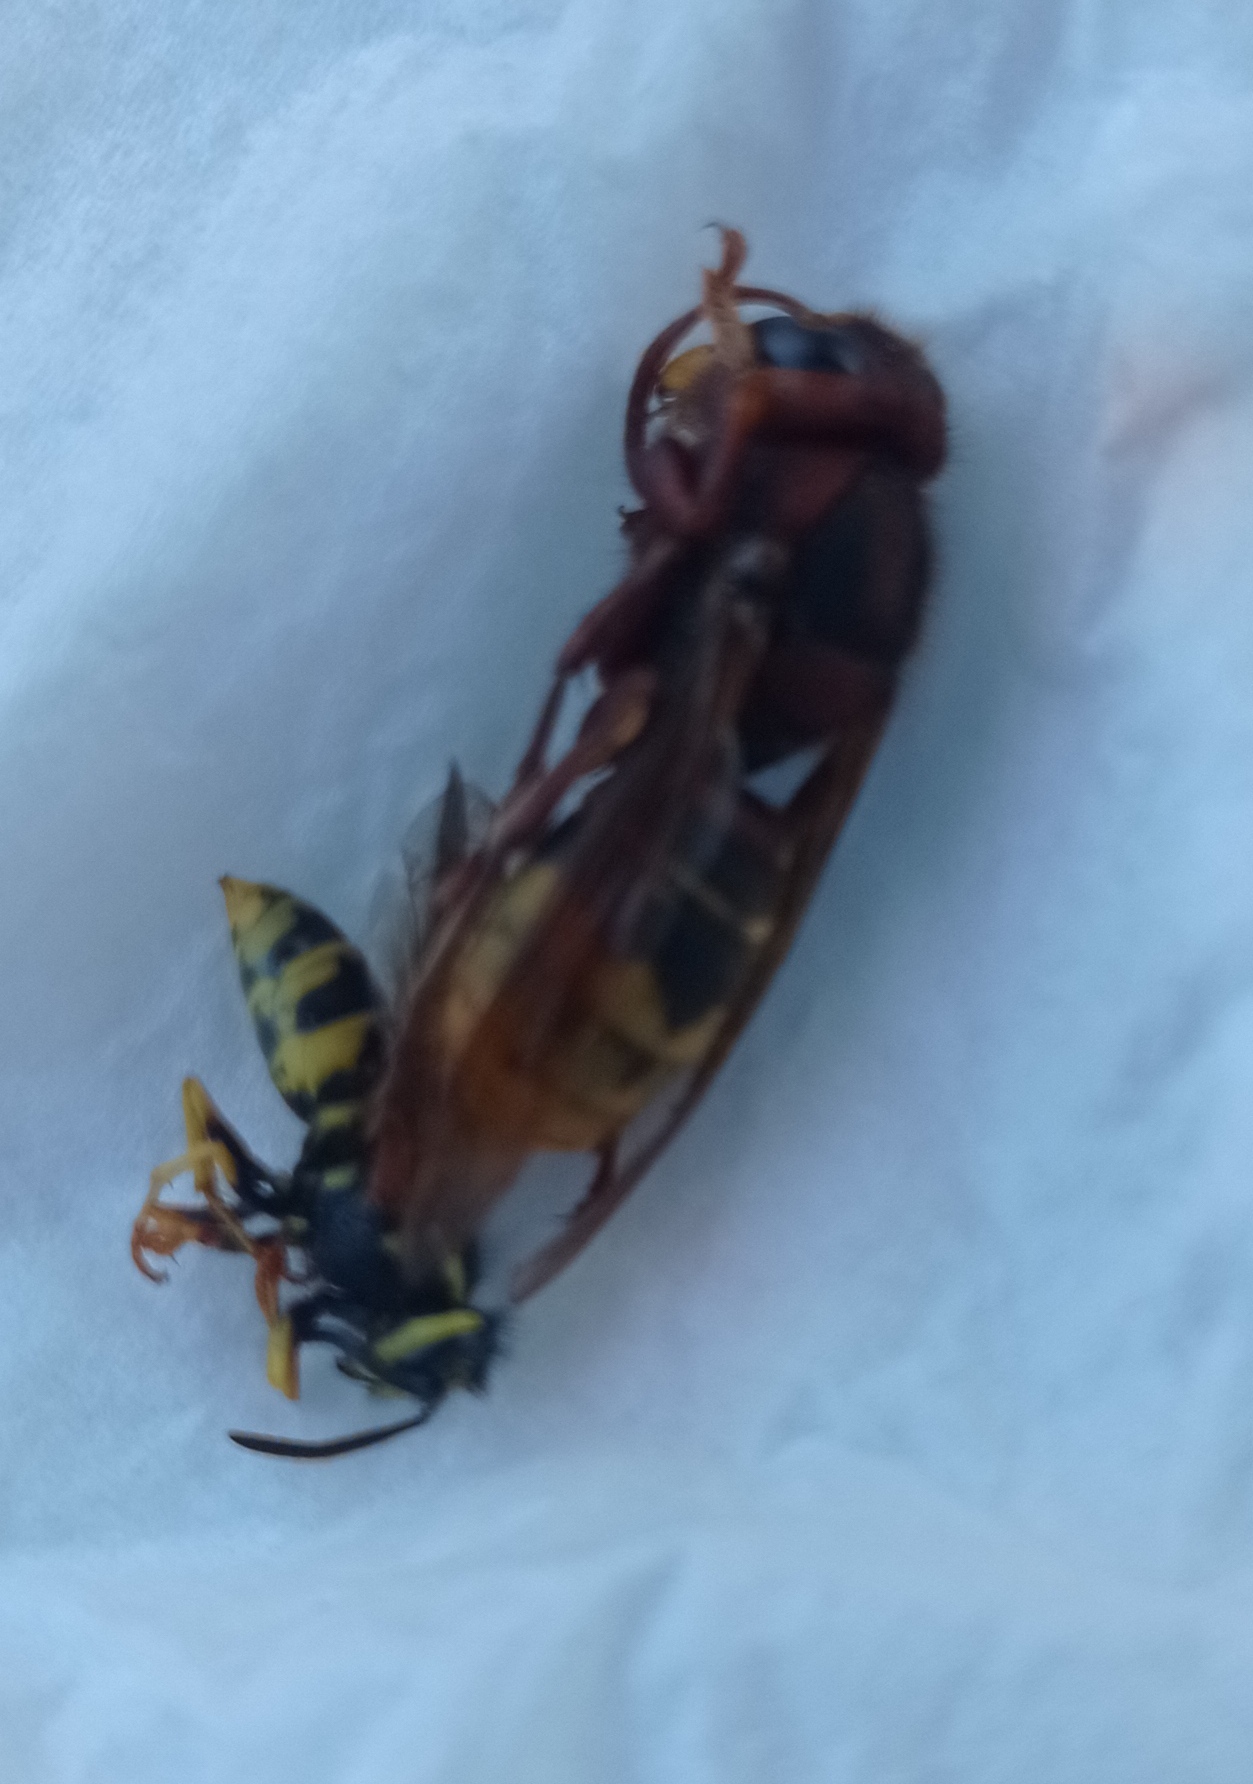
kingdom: Animalia
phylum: Arthropoda
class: Insecta
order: Hymenoptera
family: Vespidae
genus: Vespa
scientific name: Vespa crabro
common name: Hornet
